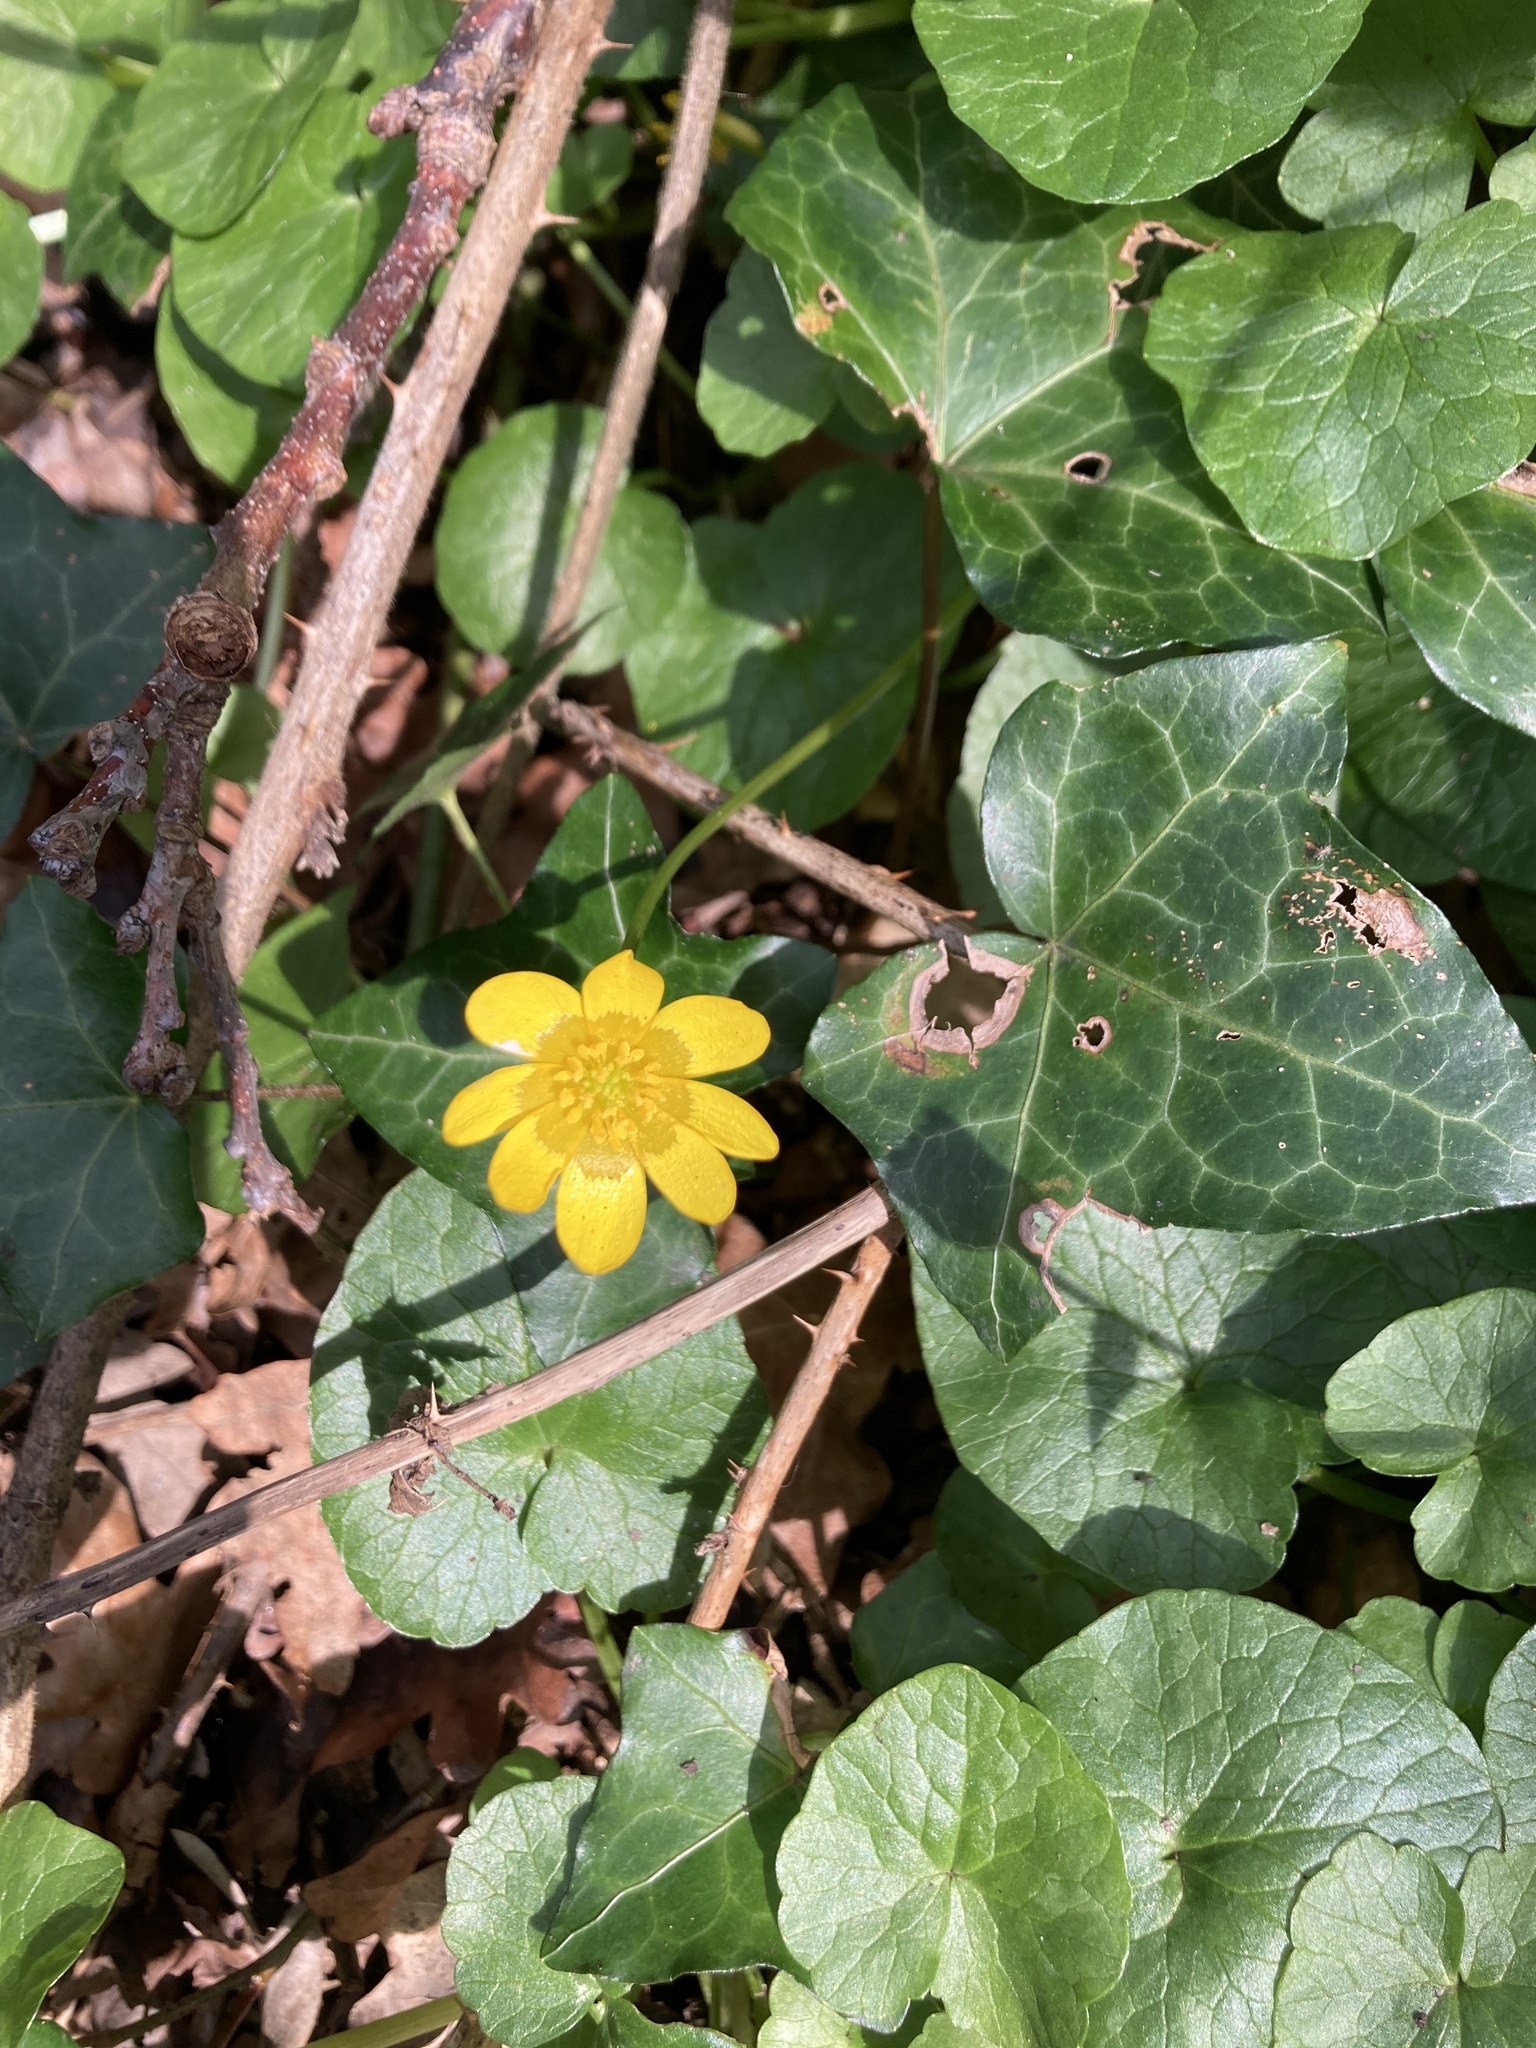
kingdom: Plantae
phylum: Tracheophyta
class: Magnoliopsida
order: Ranunculales
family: Ranunculaceae
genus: Ficaria
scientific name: Ficaria verna
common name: Lesser celandine
